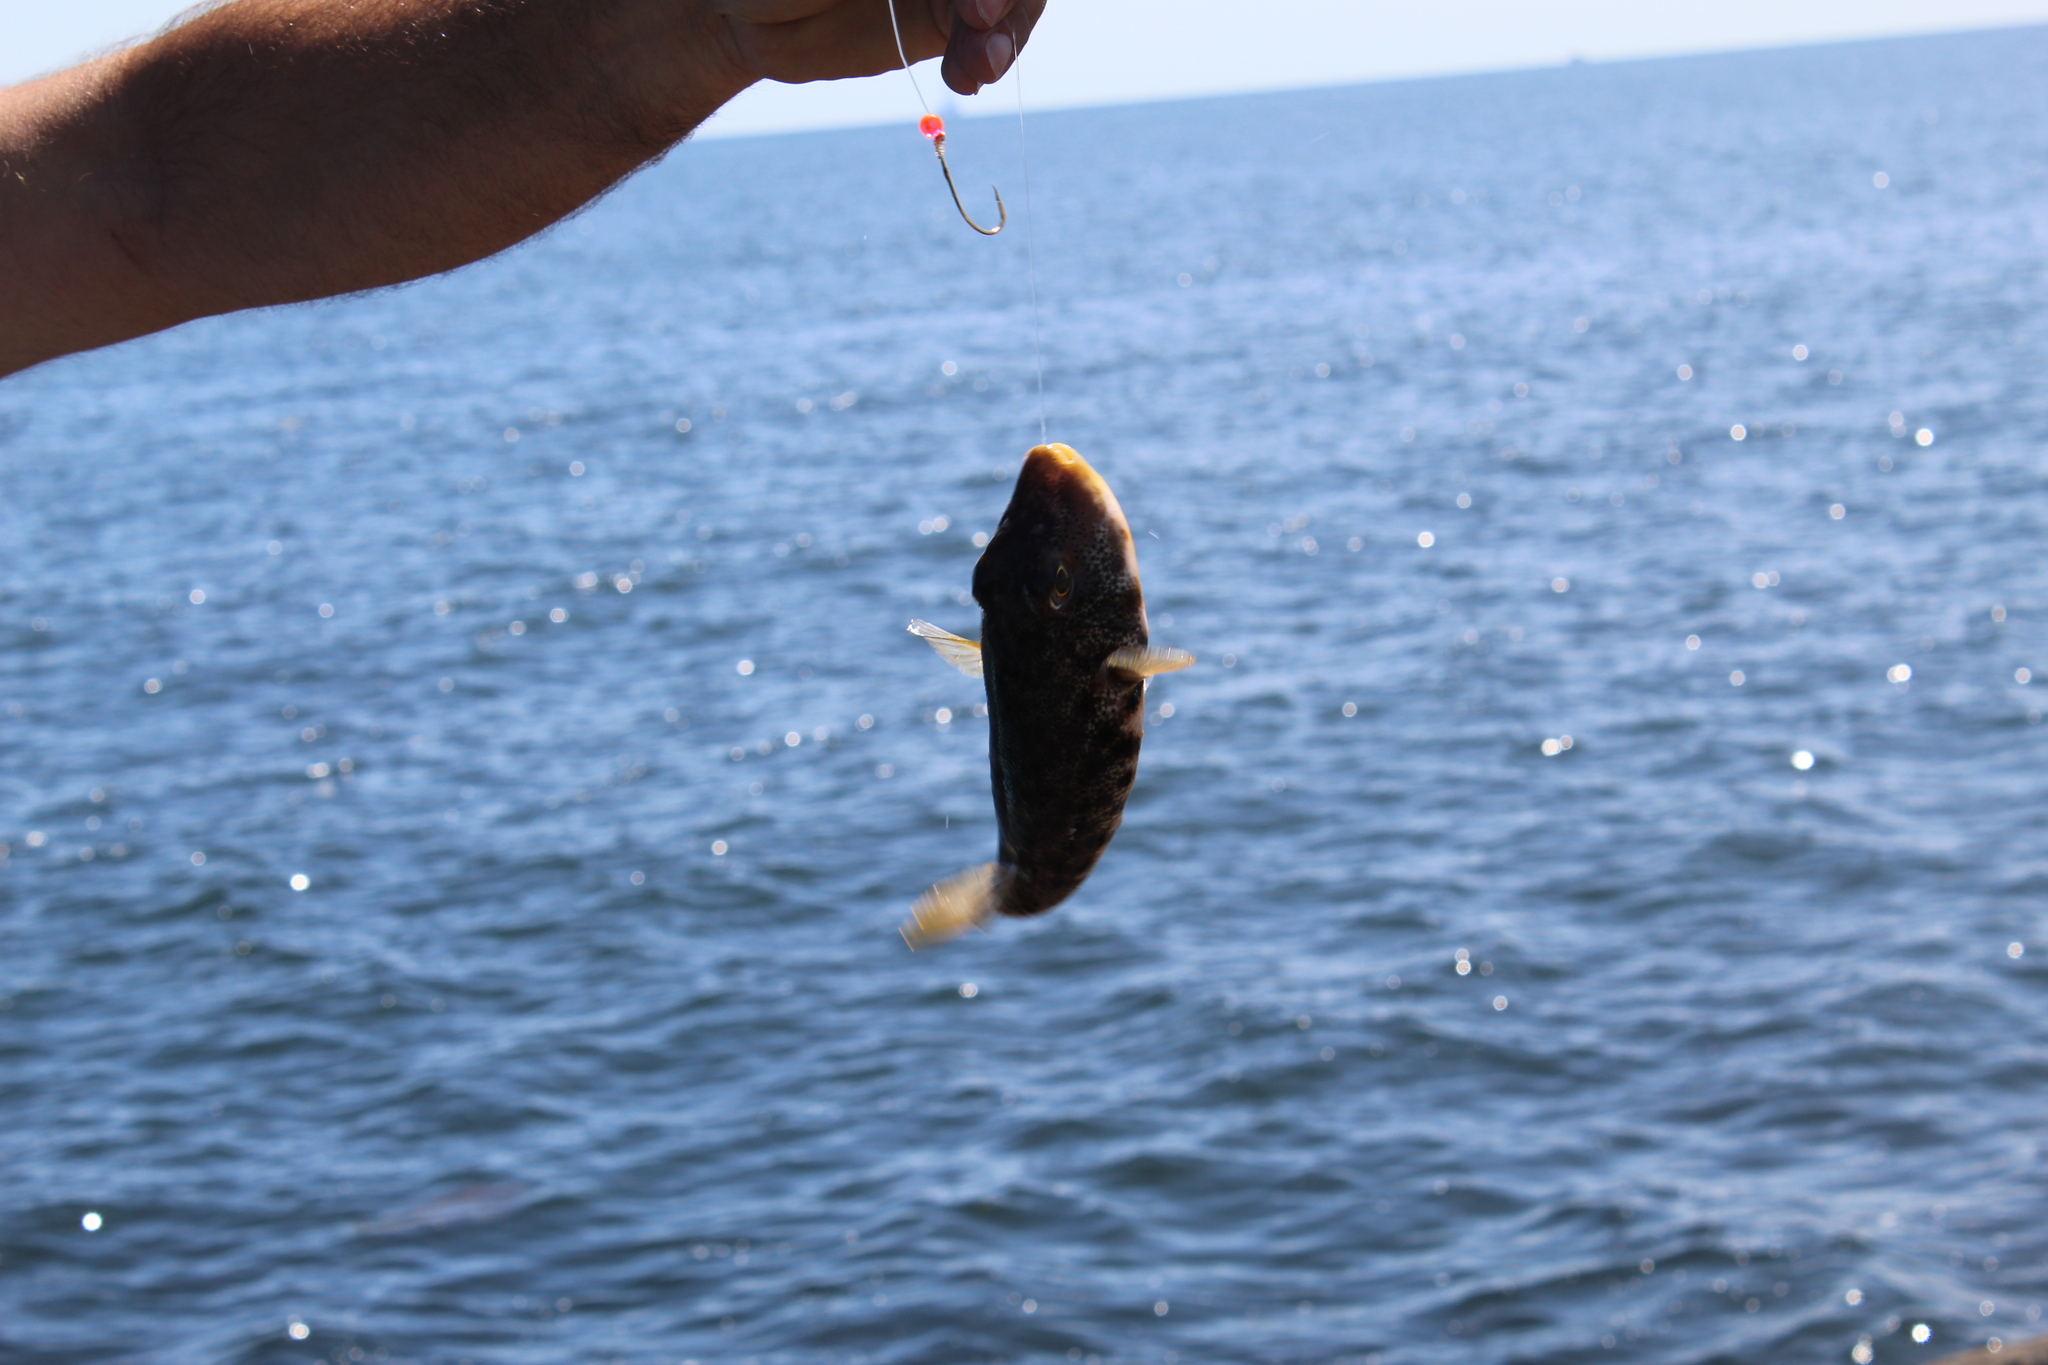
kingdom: Animalia
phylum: Chordata
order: Tetraodontiformes
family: Tetraodontidae
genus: Sphoeroides
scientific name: Sphoeroides maculatus
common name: Northern puffer
